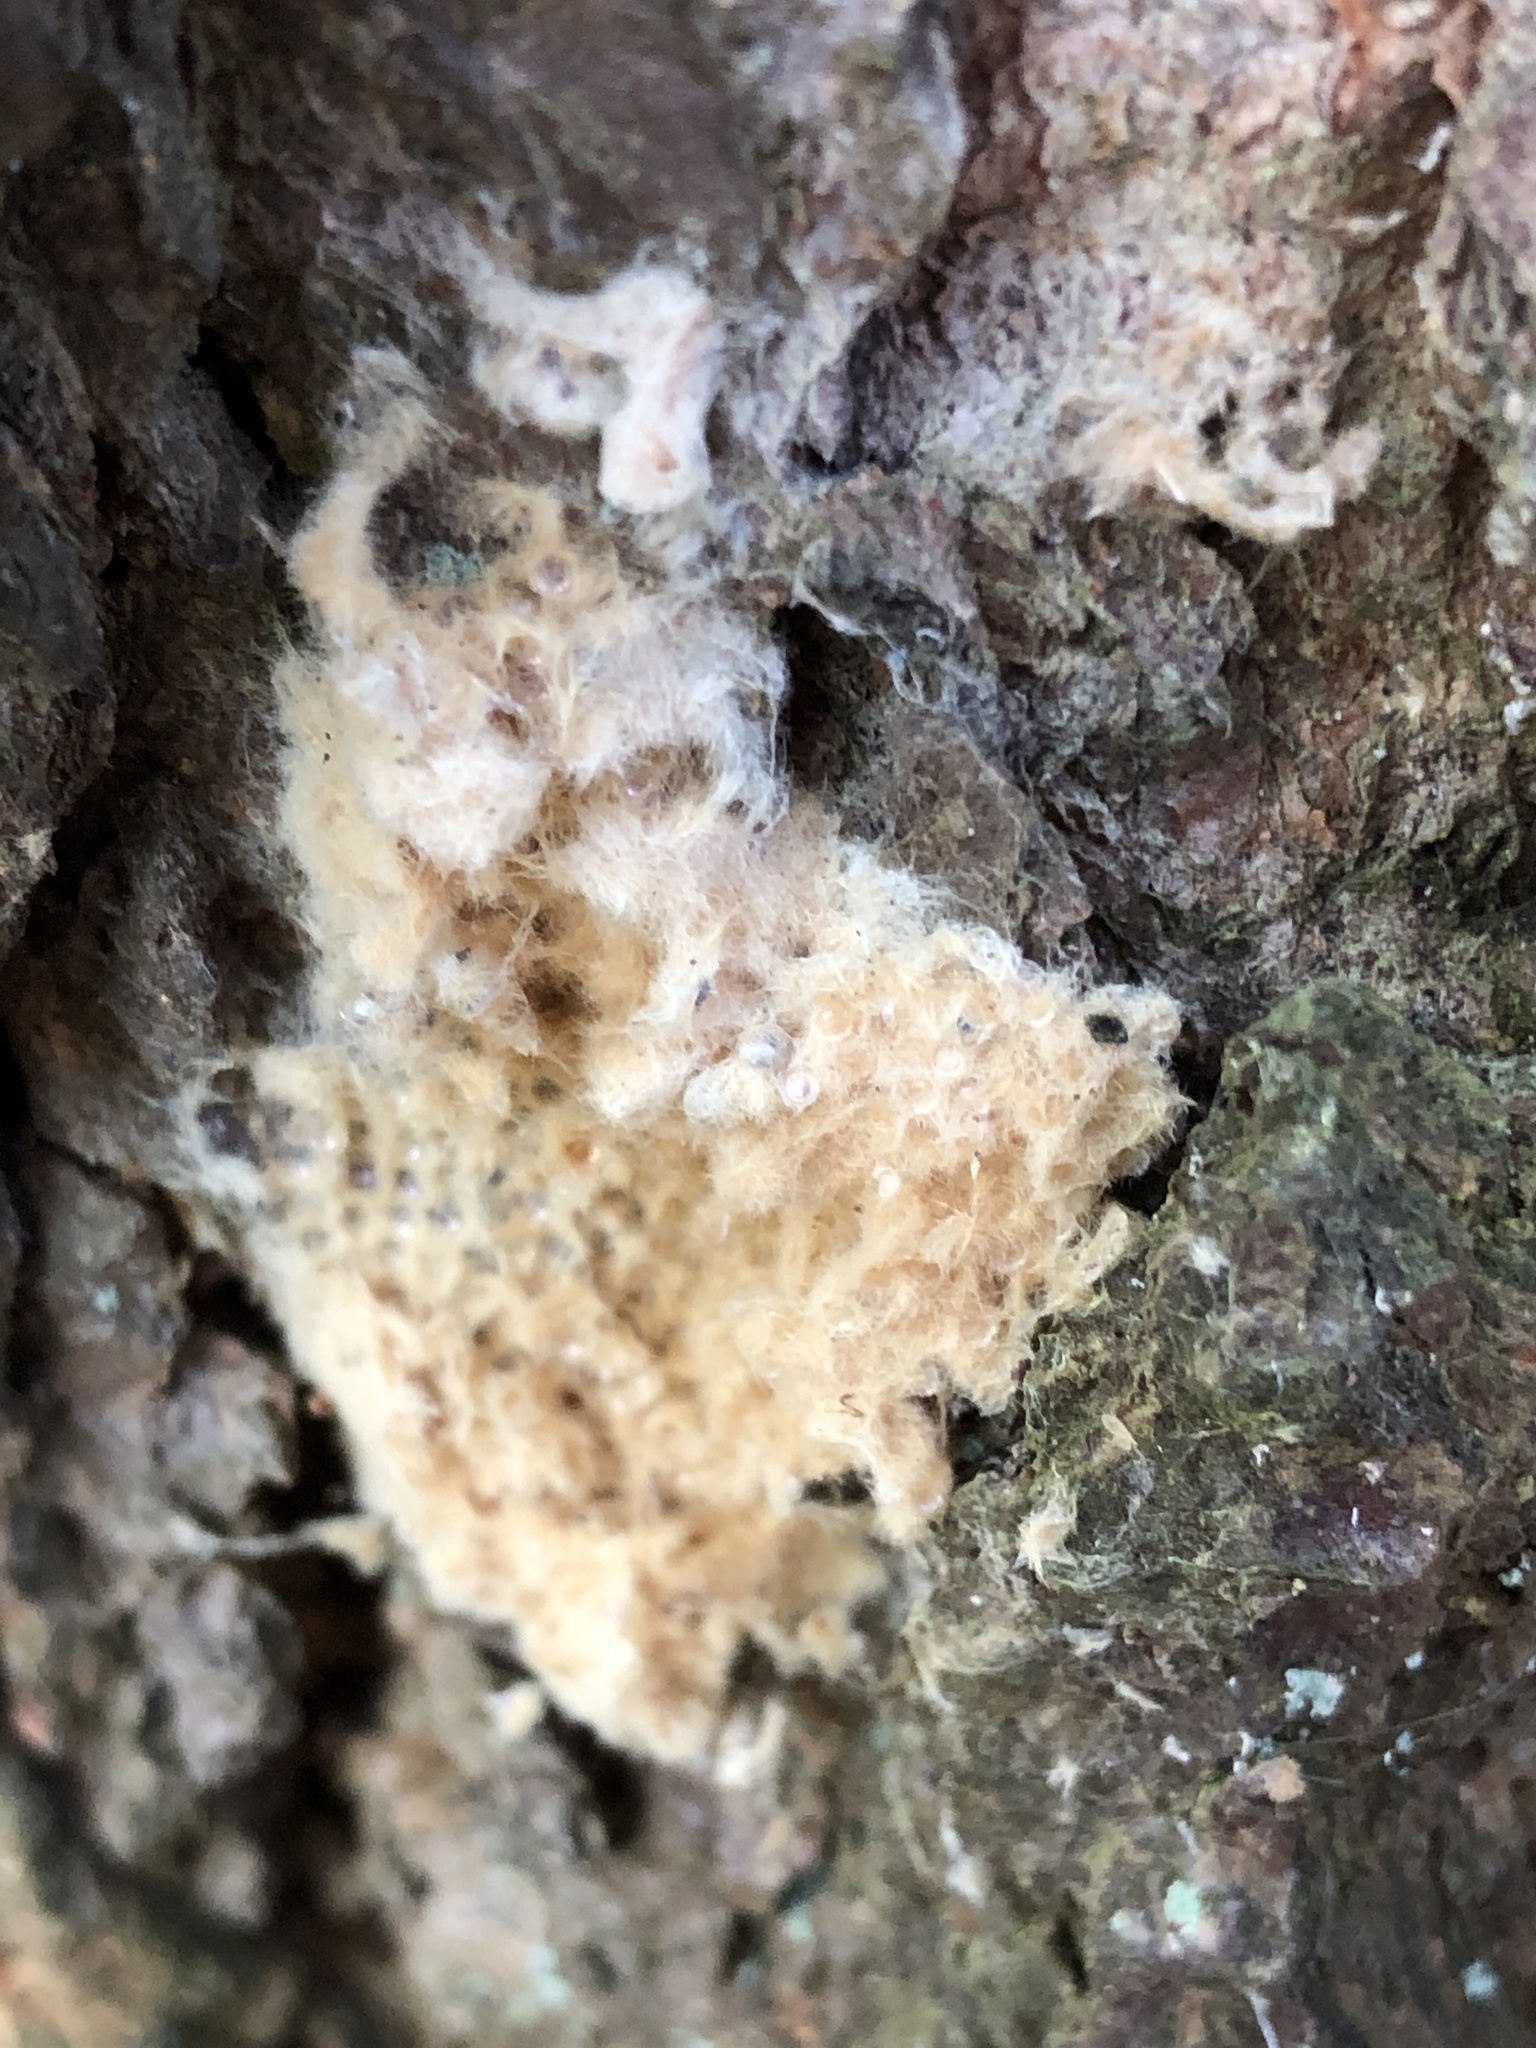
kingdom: Animalia
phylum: Arthropoda
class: Insecta
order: Lepidoptera
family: Erebidae
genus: Lymantria
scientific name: Lymantria dispar
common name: Gypsy moth
